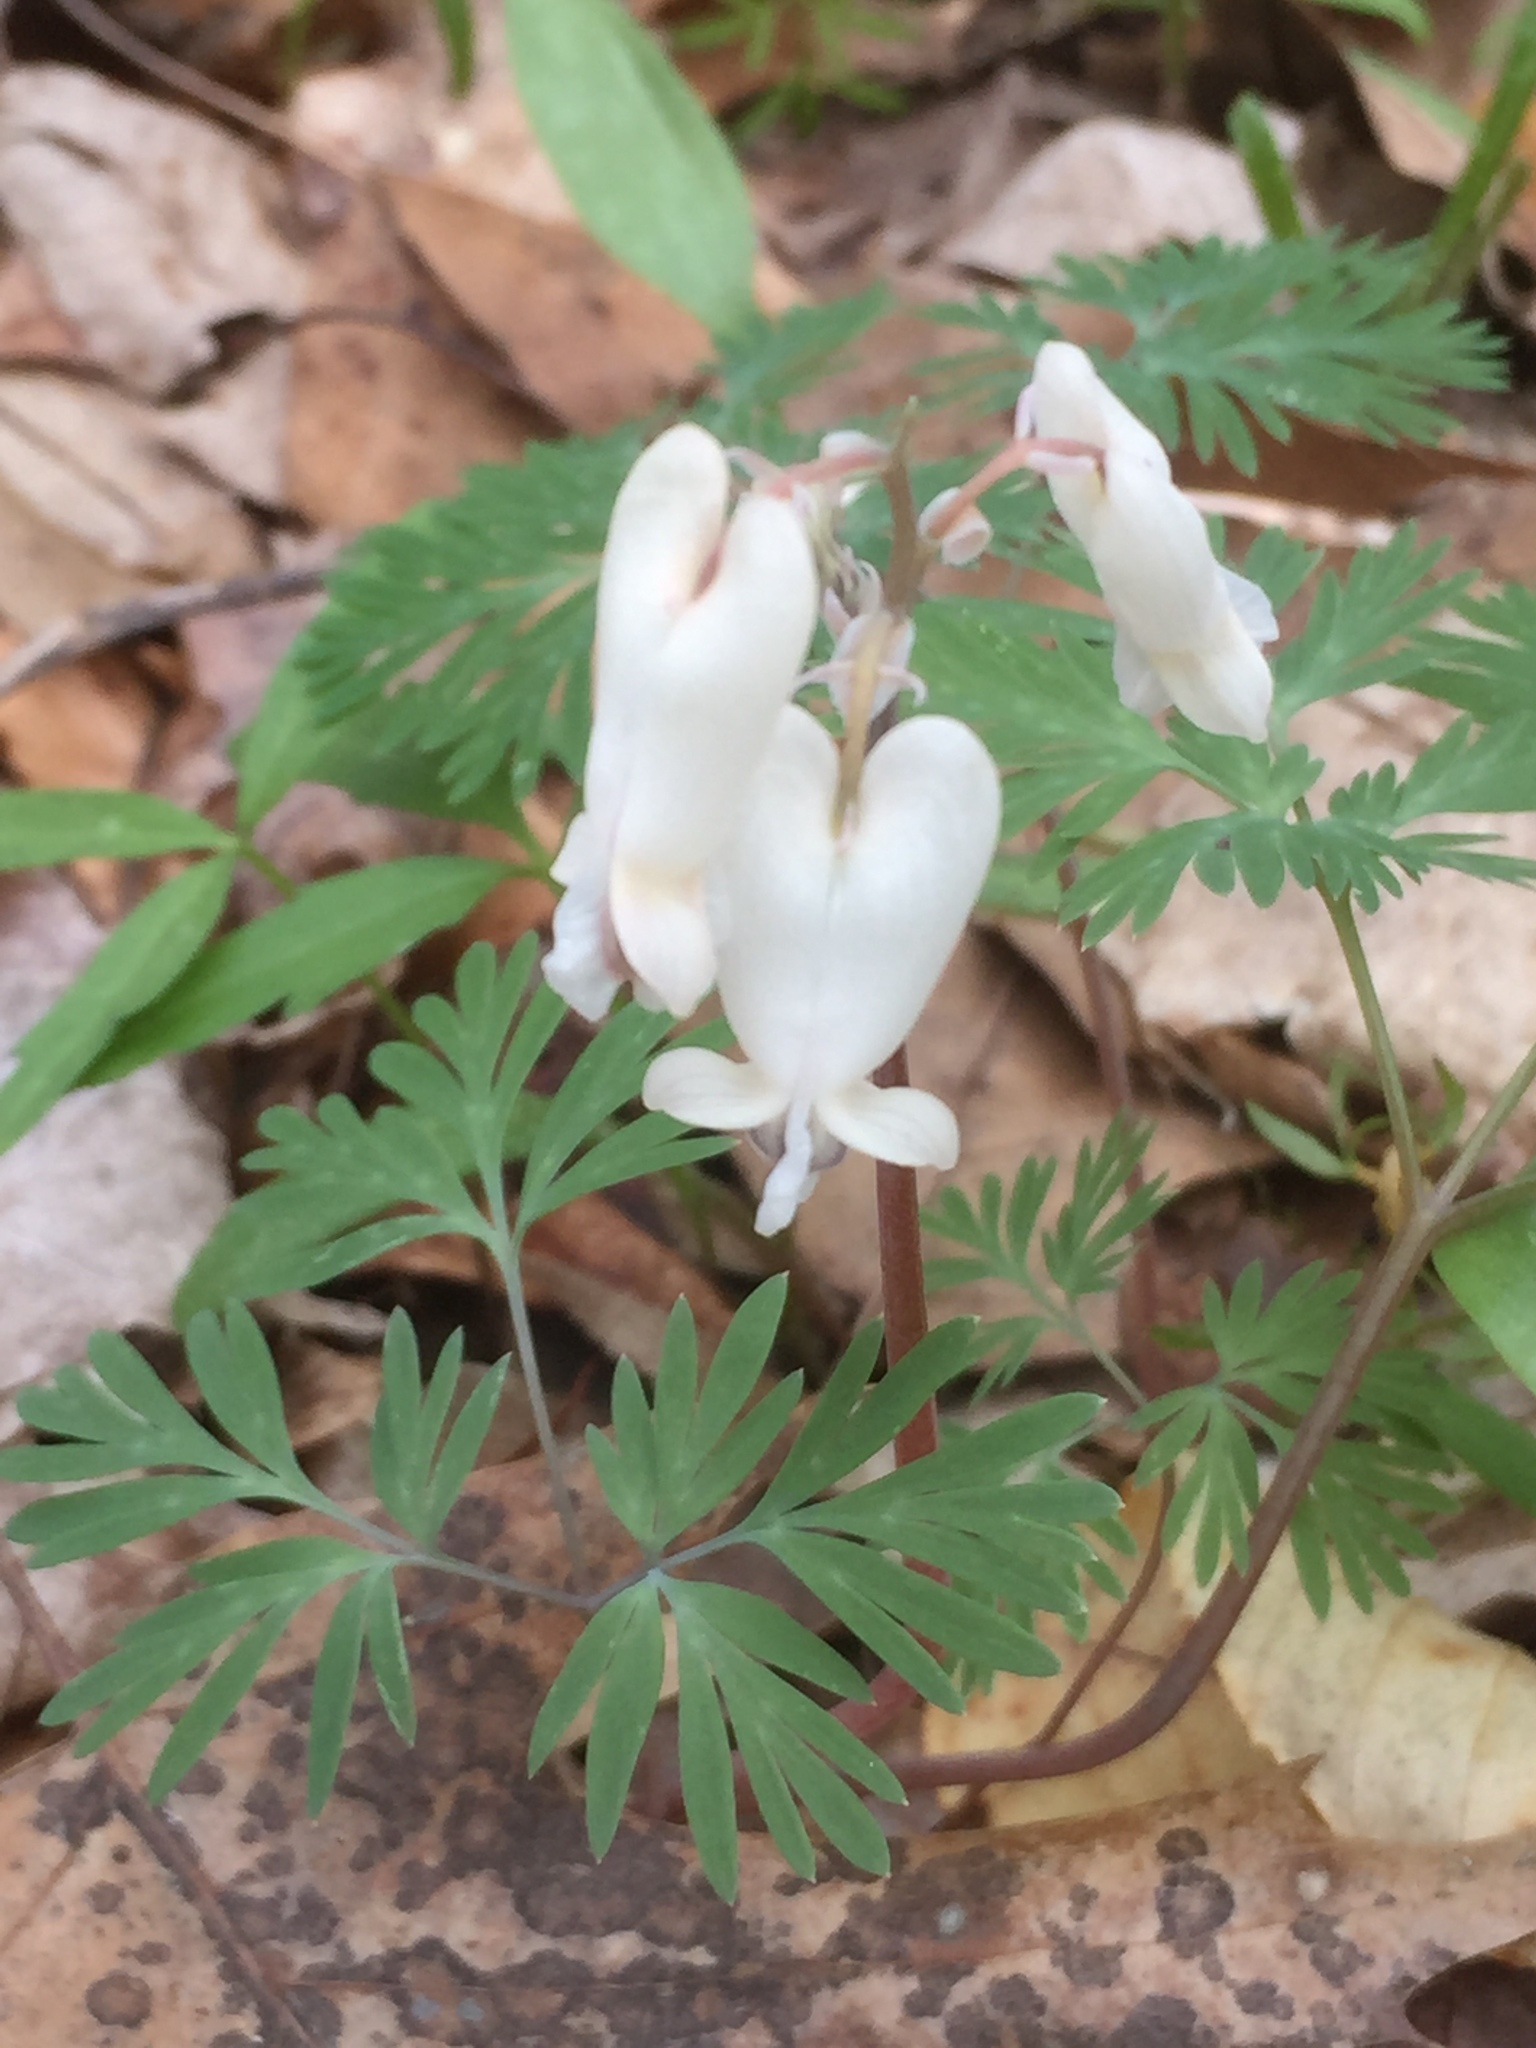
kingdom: Plantae
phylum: Tracheophyta
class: Magnoliopsida
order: Ranunculales
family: Papaveraceae
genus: Dicentra
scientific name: Dicentra canadensis
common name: Squirrel-corn
